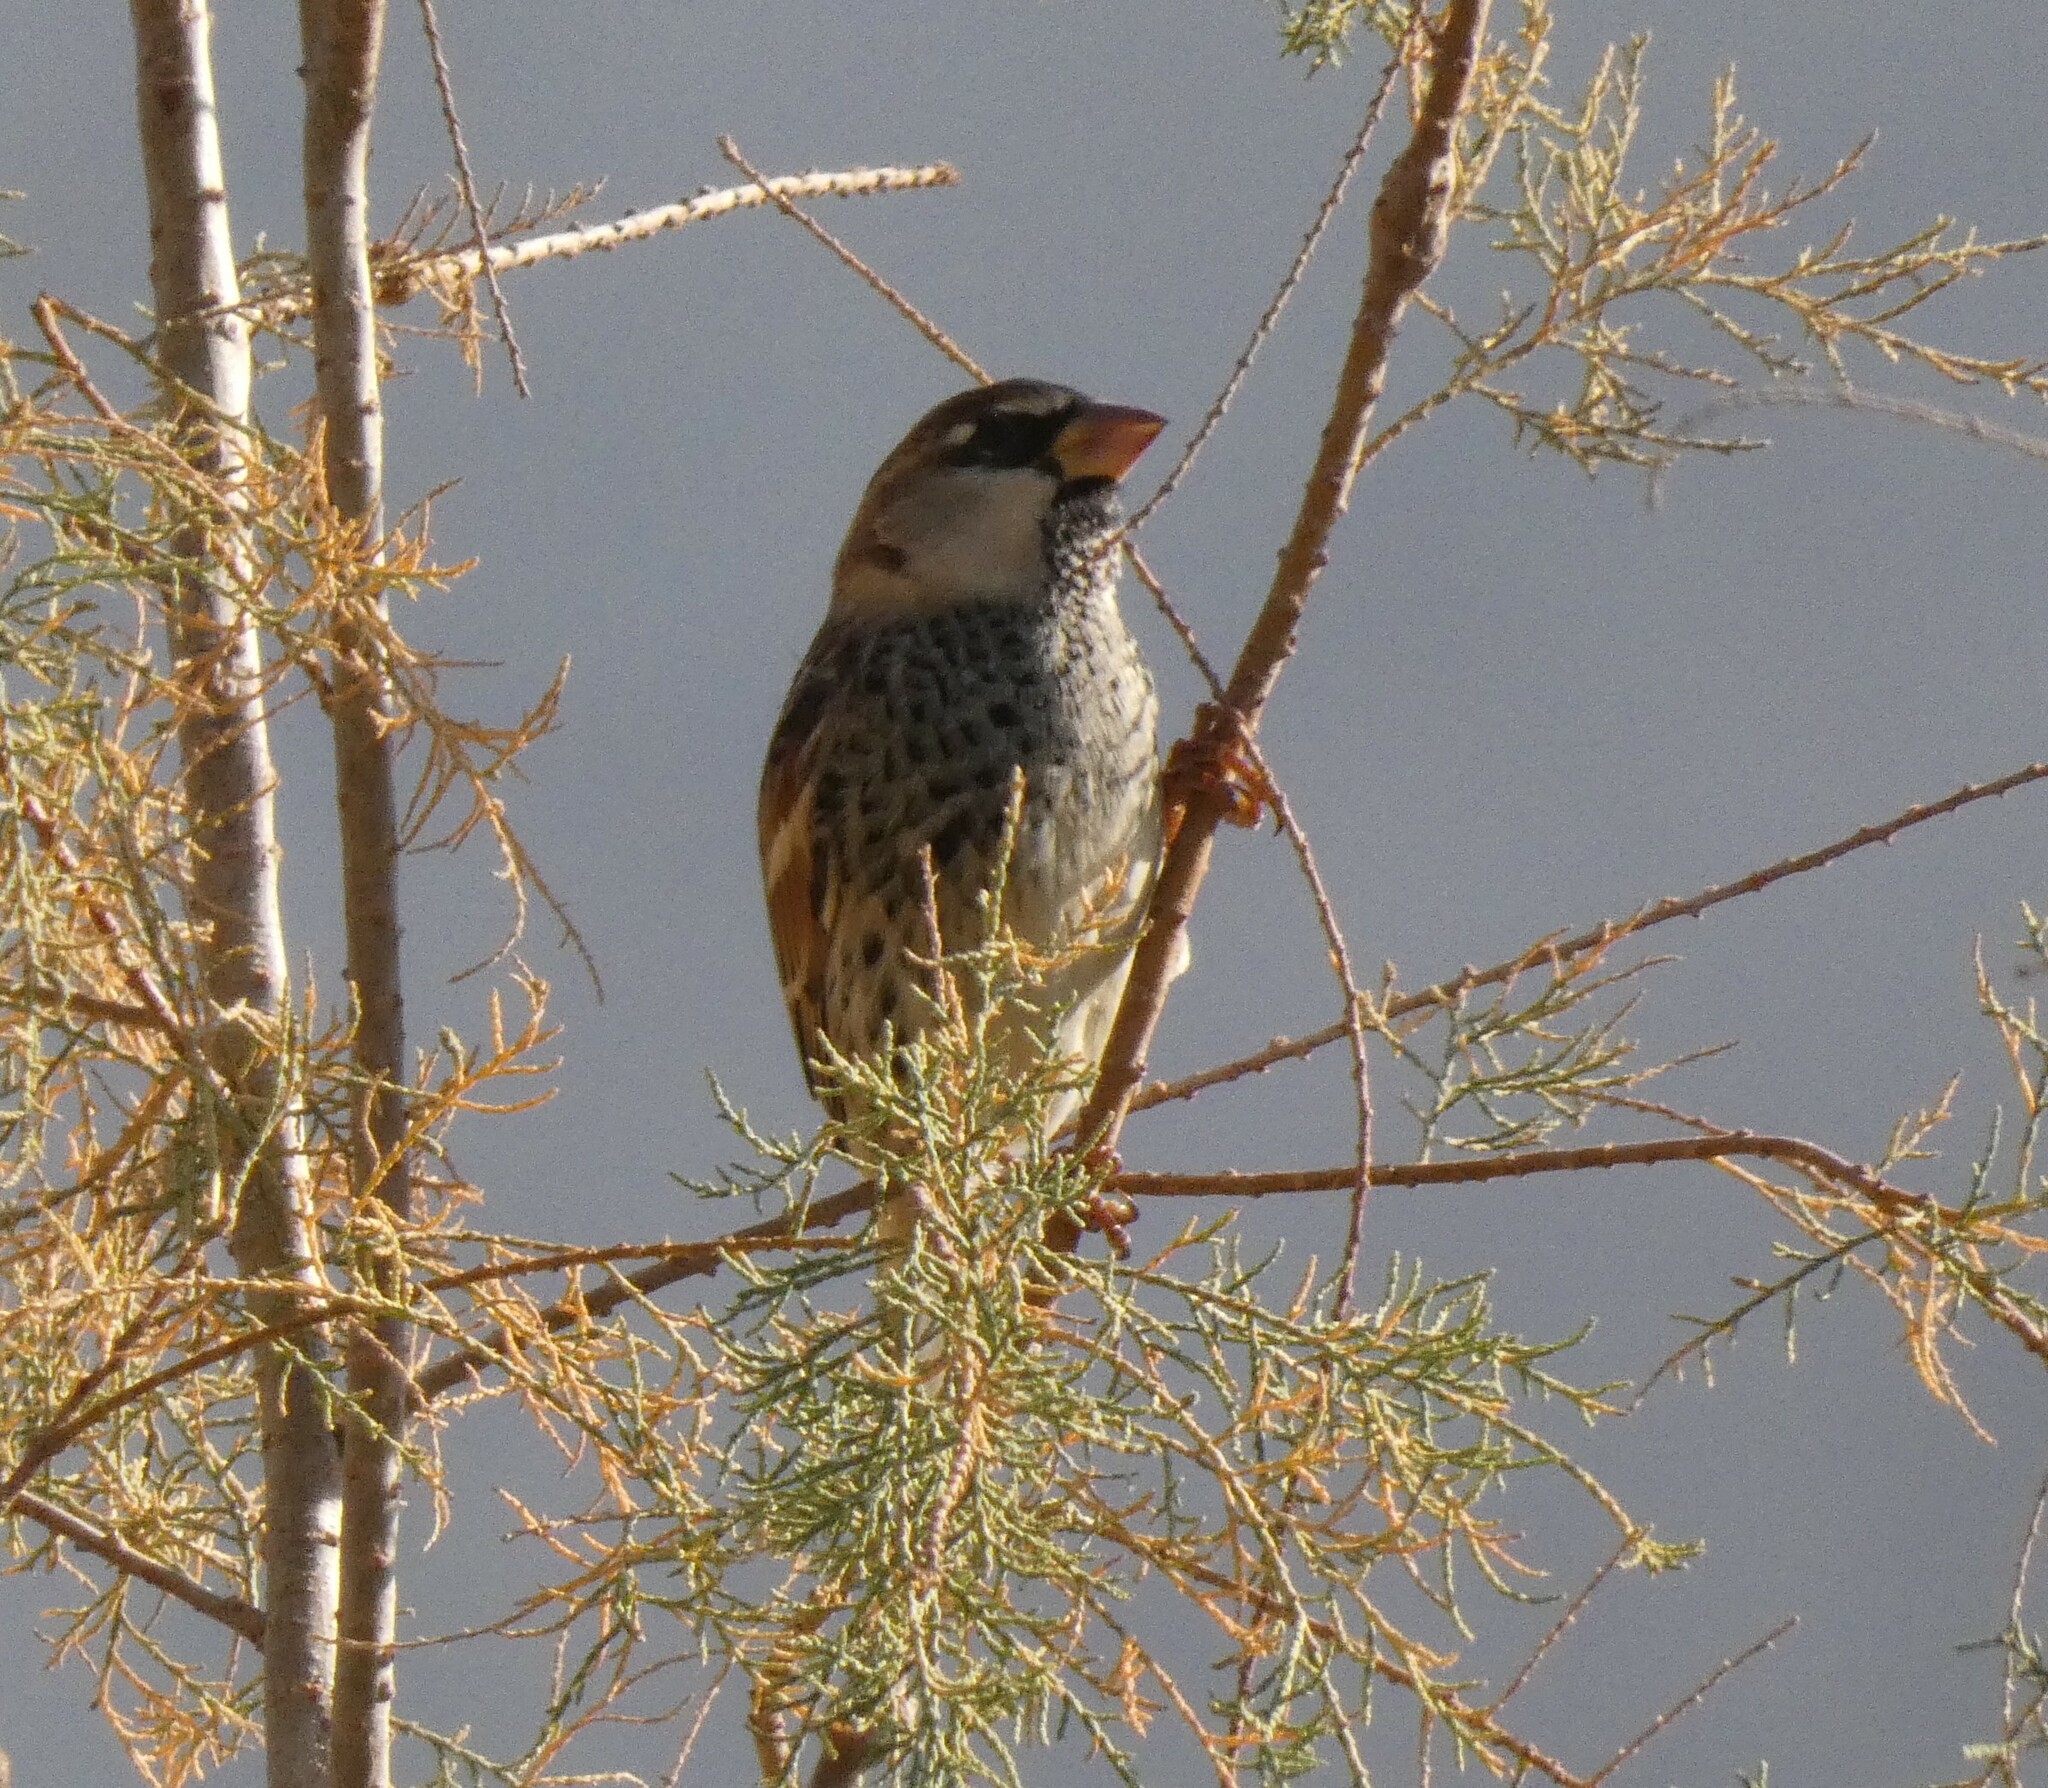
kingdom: Animalia
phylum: Chordata
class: Aves
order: Passeriformes
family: Passeridae
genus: Passer
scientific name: Passer hispaniolensis
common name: Spanish sparrow
